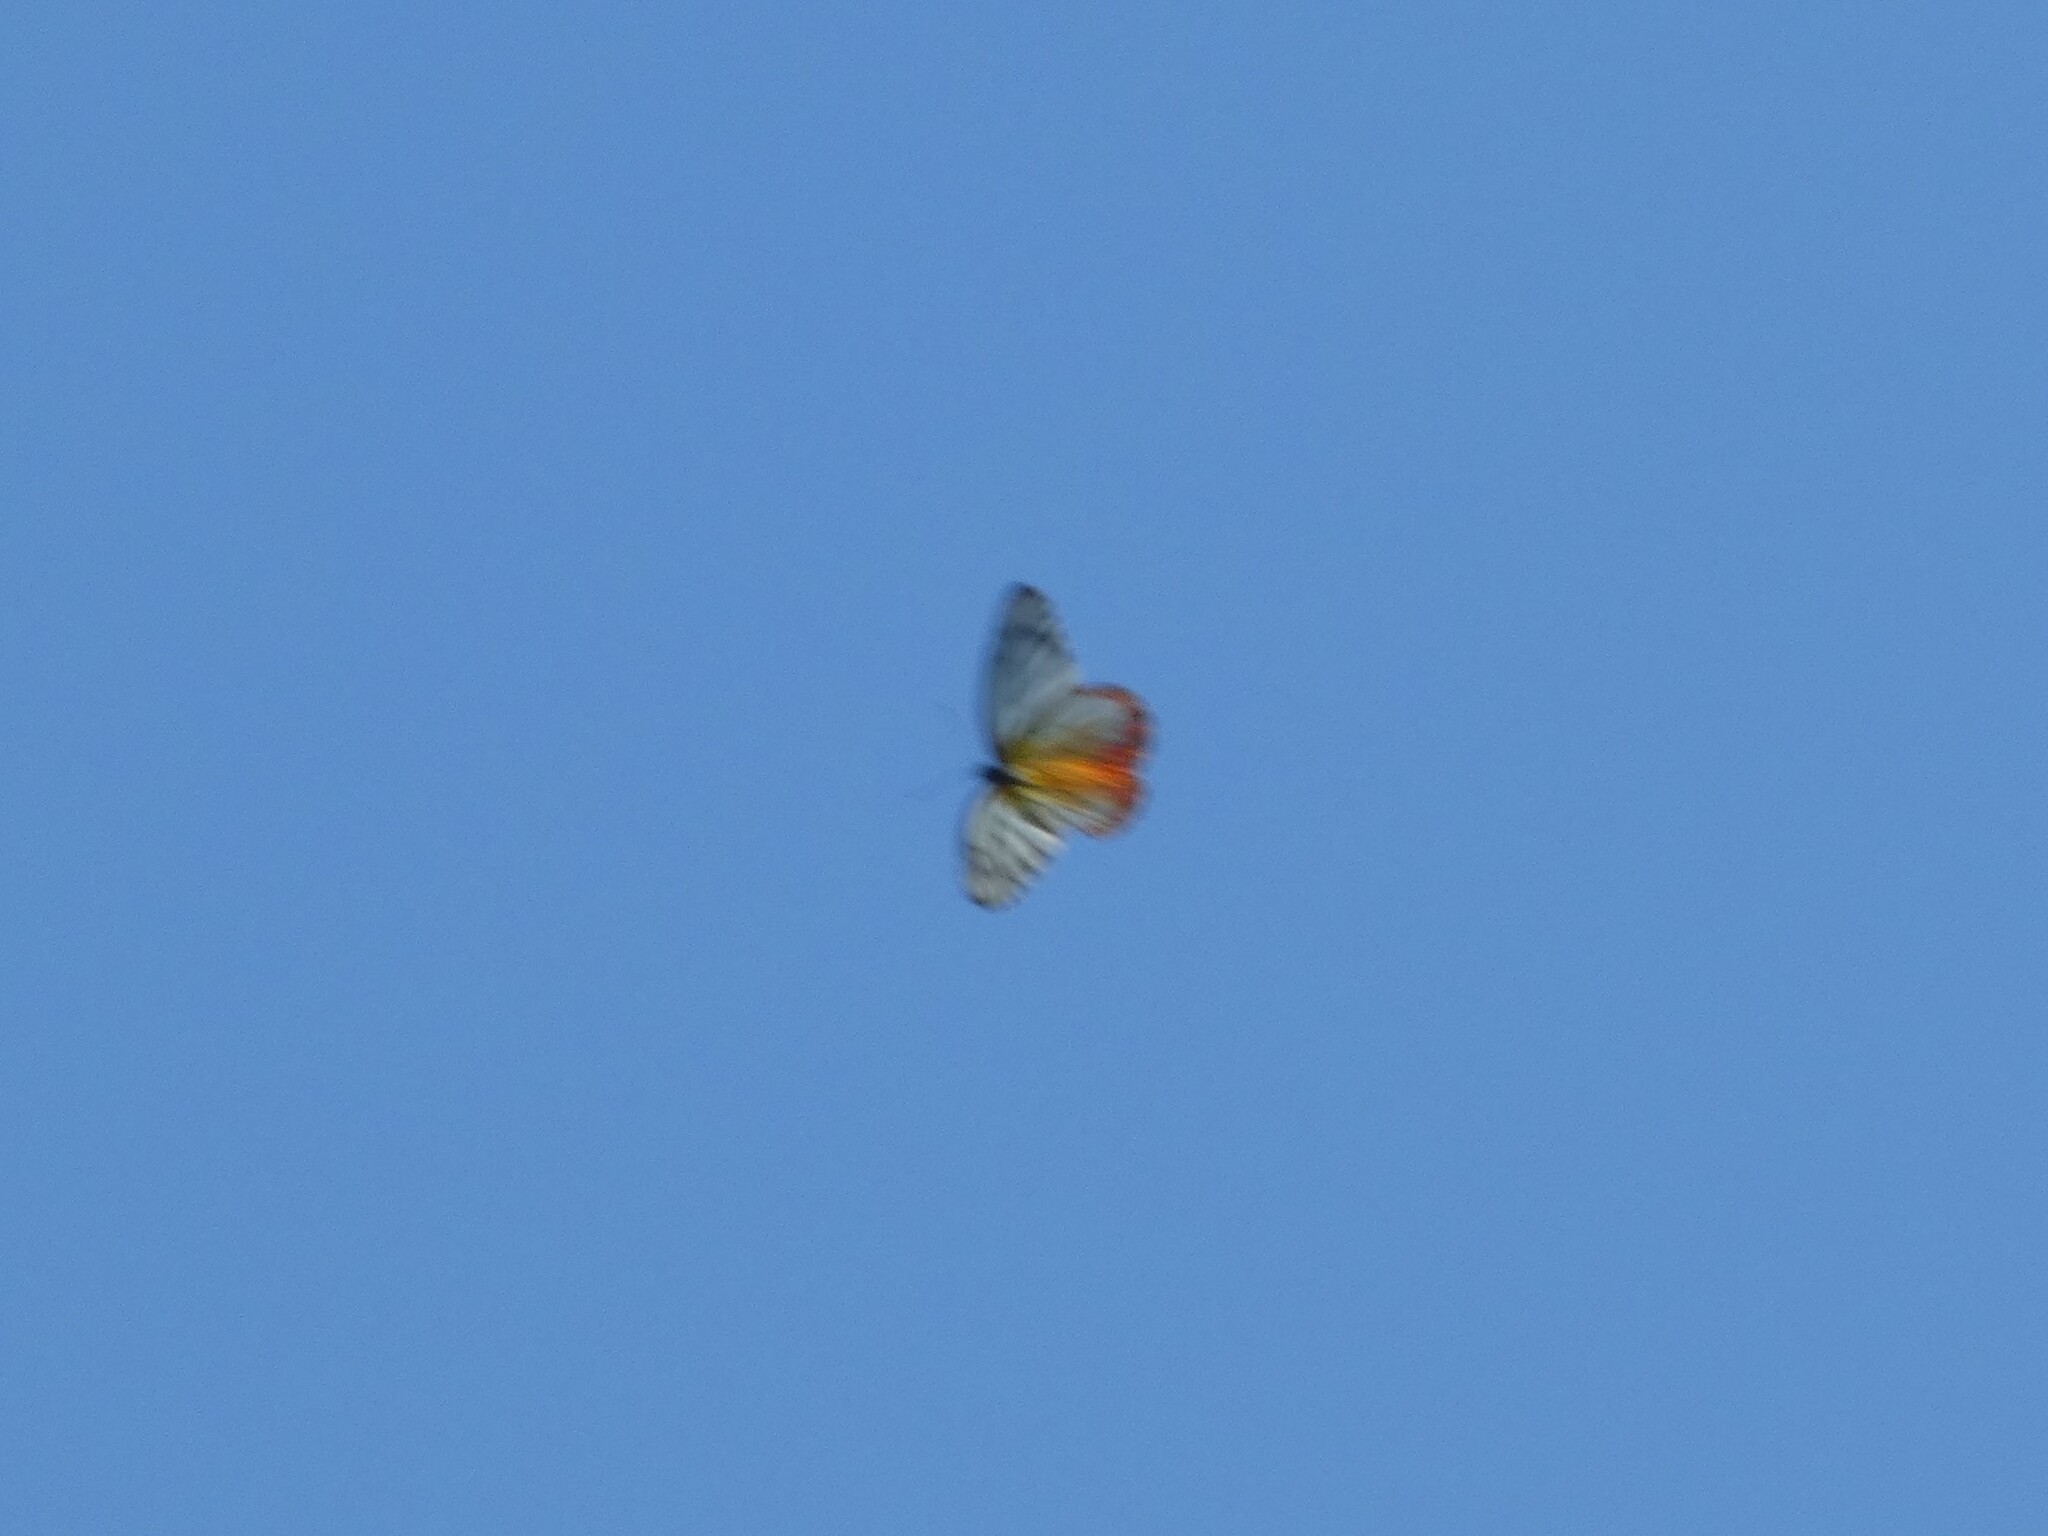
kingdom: Animalia
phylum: Arthropoda
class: Insecta
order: Lepidoptera
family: Pieridae
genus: Delias
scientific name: Delias hyparete
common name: Painted jezebel
